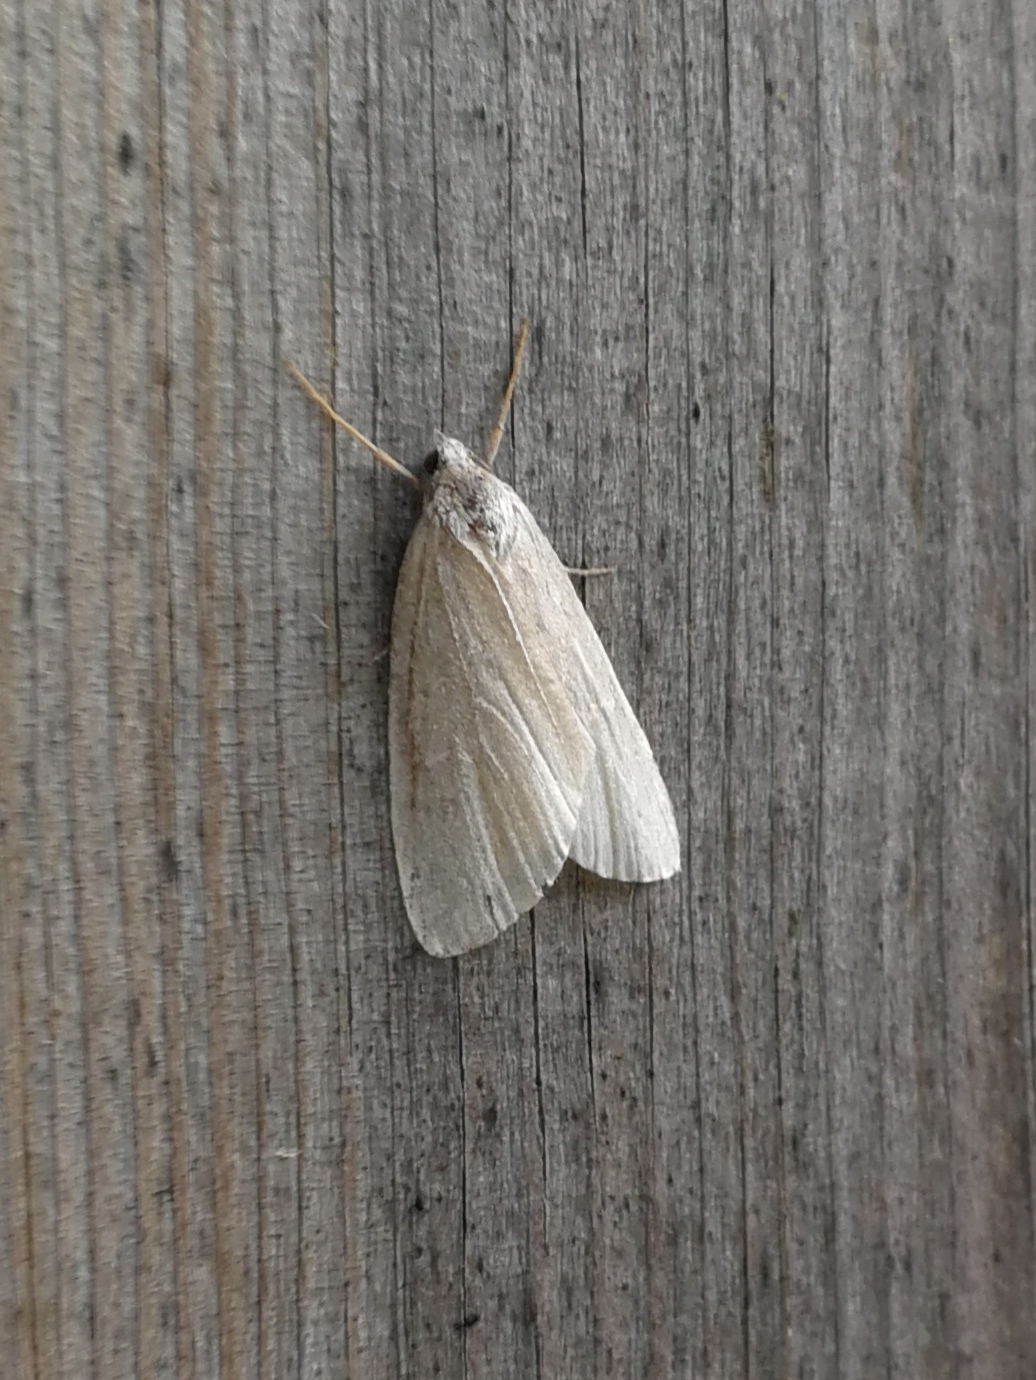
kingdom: Animalia
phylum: Arthropoda
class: Insecta
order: Lepidoptera
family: Geometridae
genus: Pachycnemia
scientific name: Pachycnemia hippocastanaria
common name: Horse chestnut
